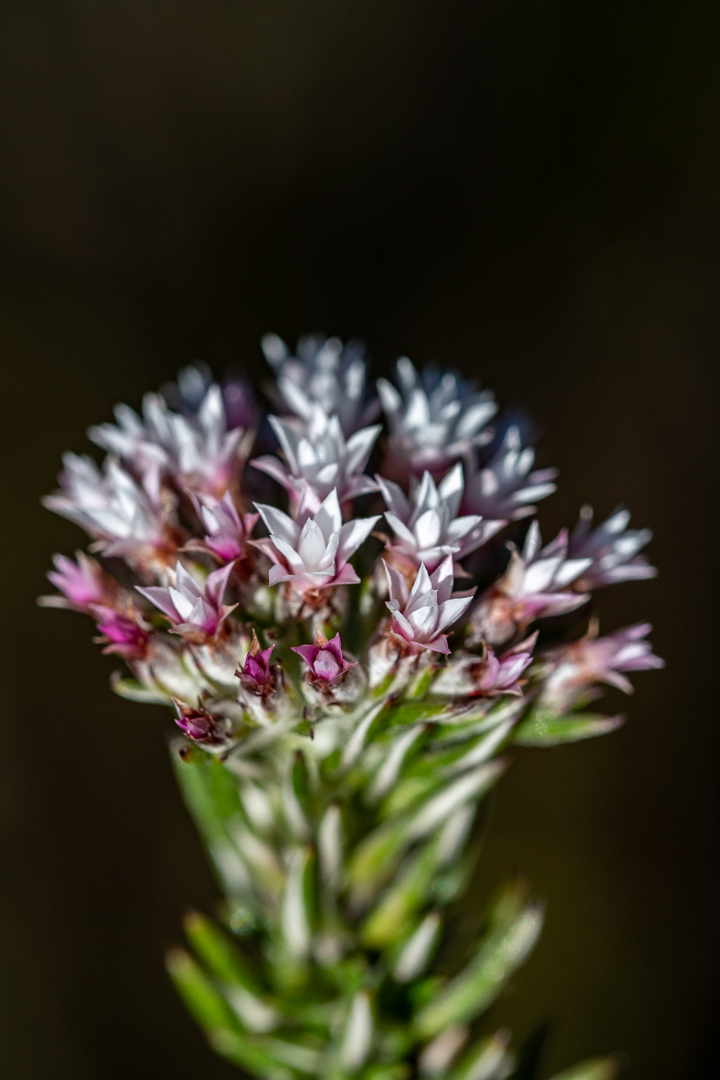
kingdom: Plantae
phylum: Tracheophyta
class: Magnoliopsida
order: Asterales
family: Asteraceae
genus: Metalasia
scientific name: Metalasia lichtensteinii
